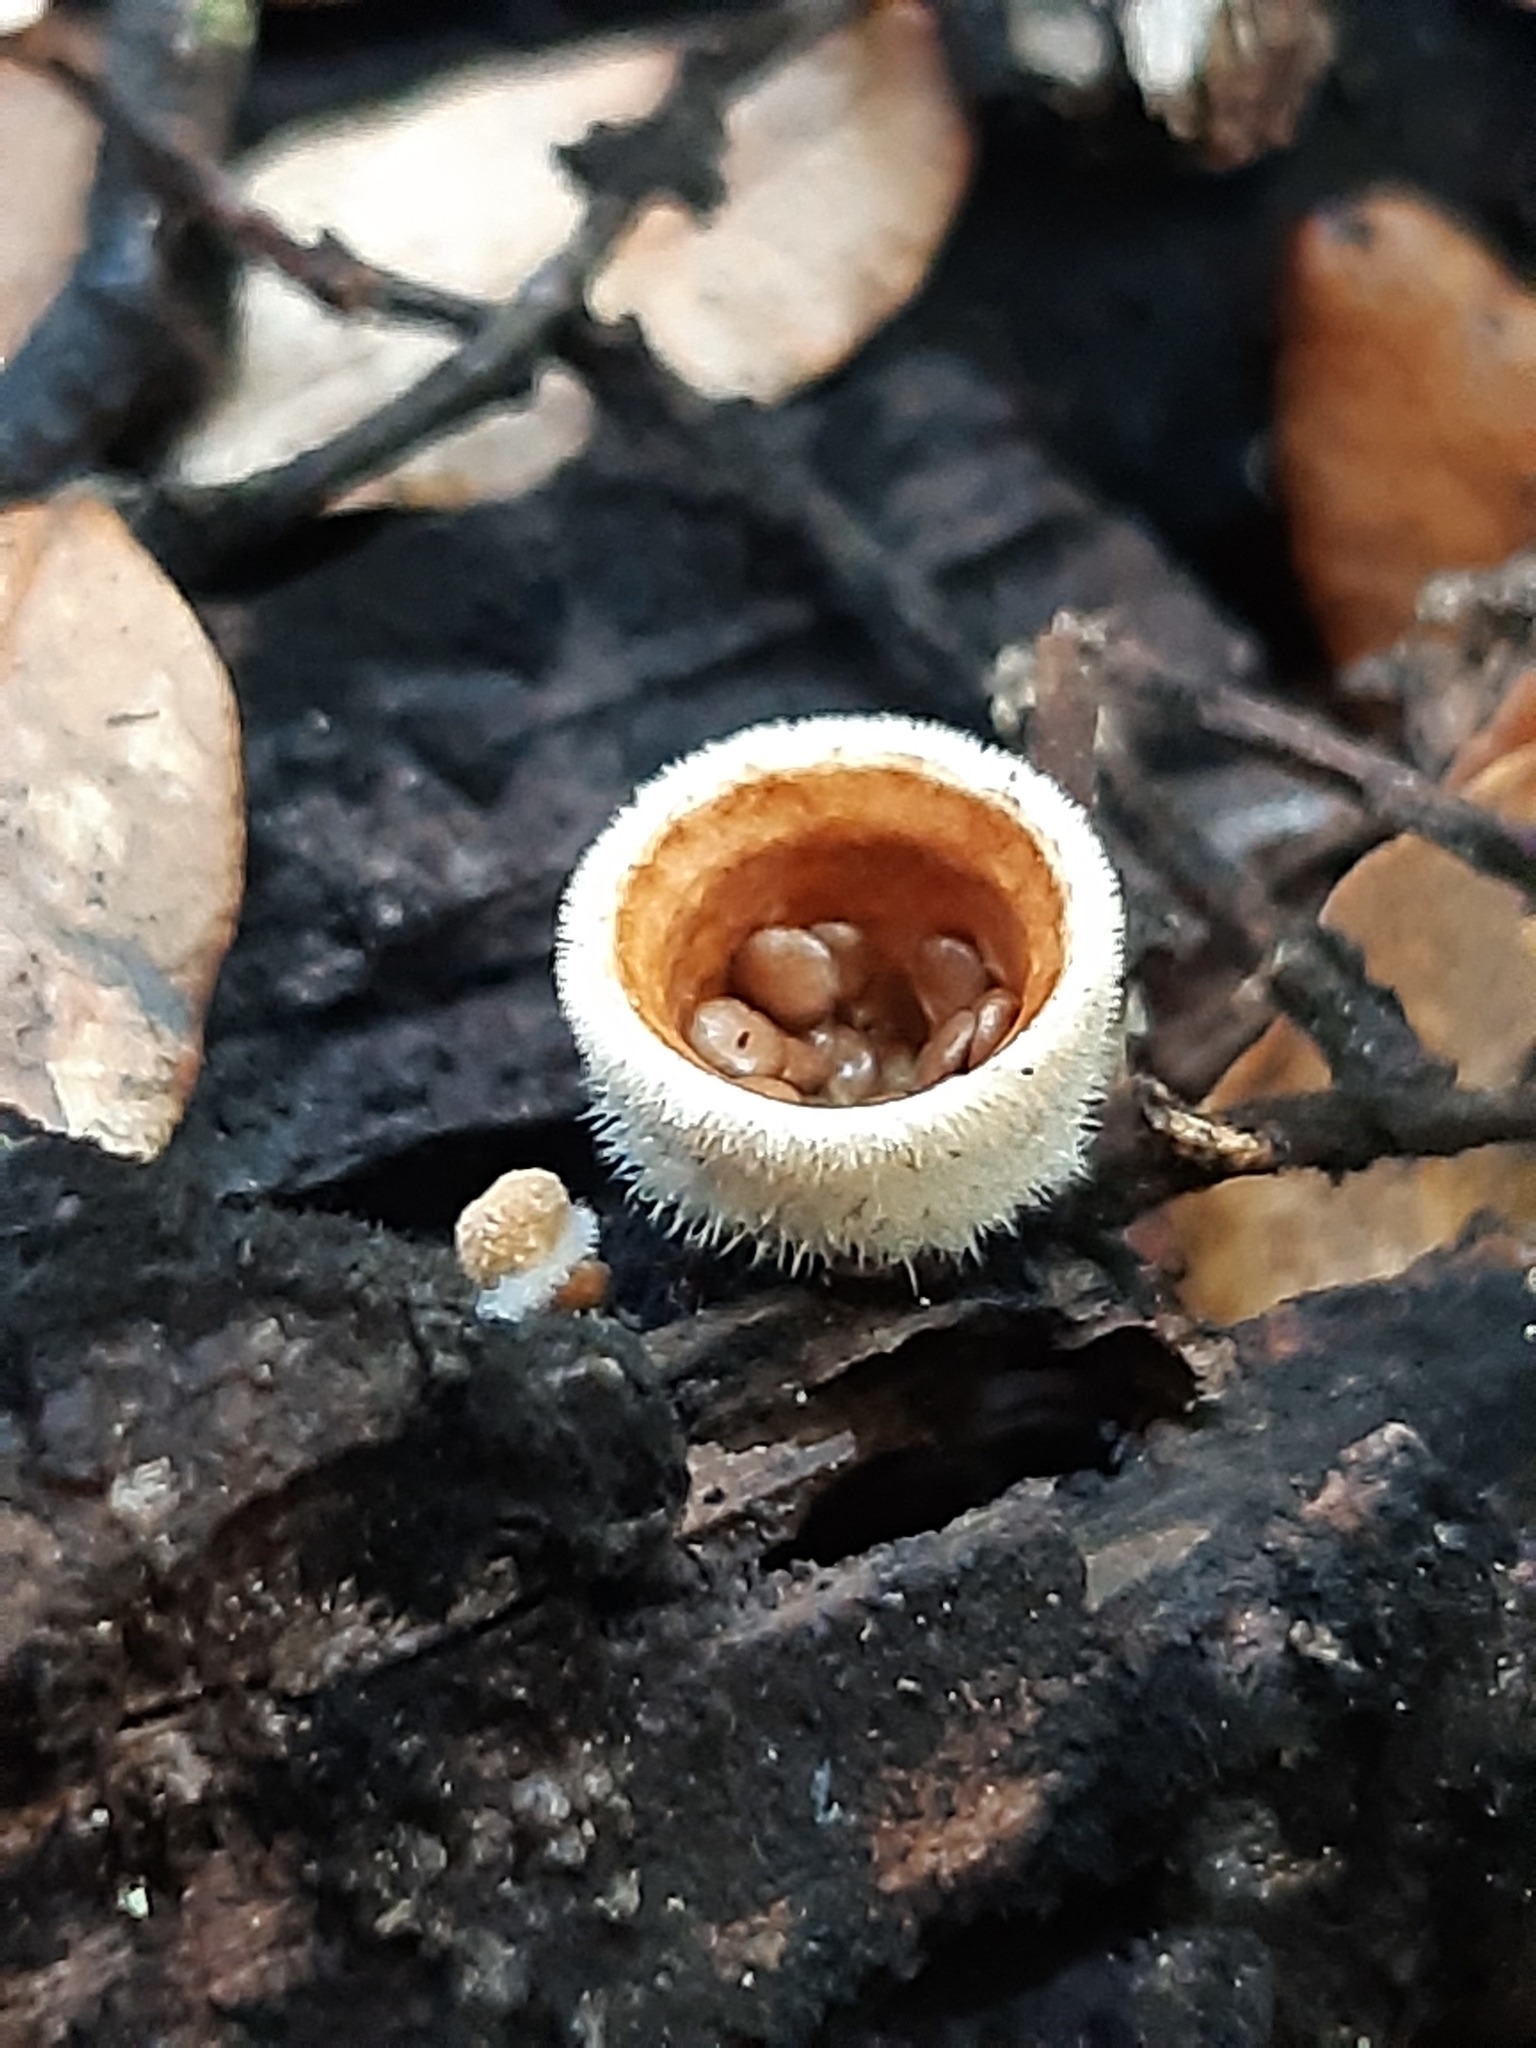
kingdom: Fungi
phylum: Basidiomycota
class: Agaricomycetes
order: Agaricales
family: Agaricaceae
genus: Nidula
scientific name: Nidula niveotomentosa
